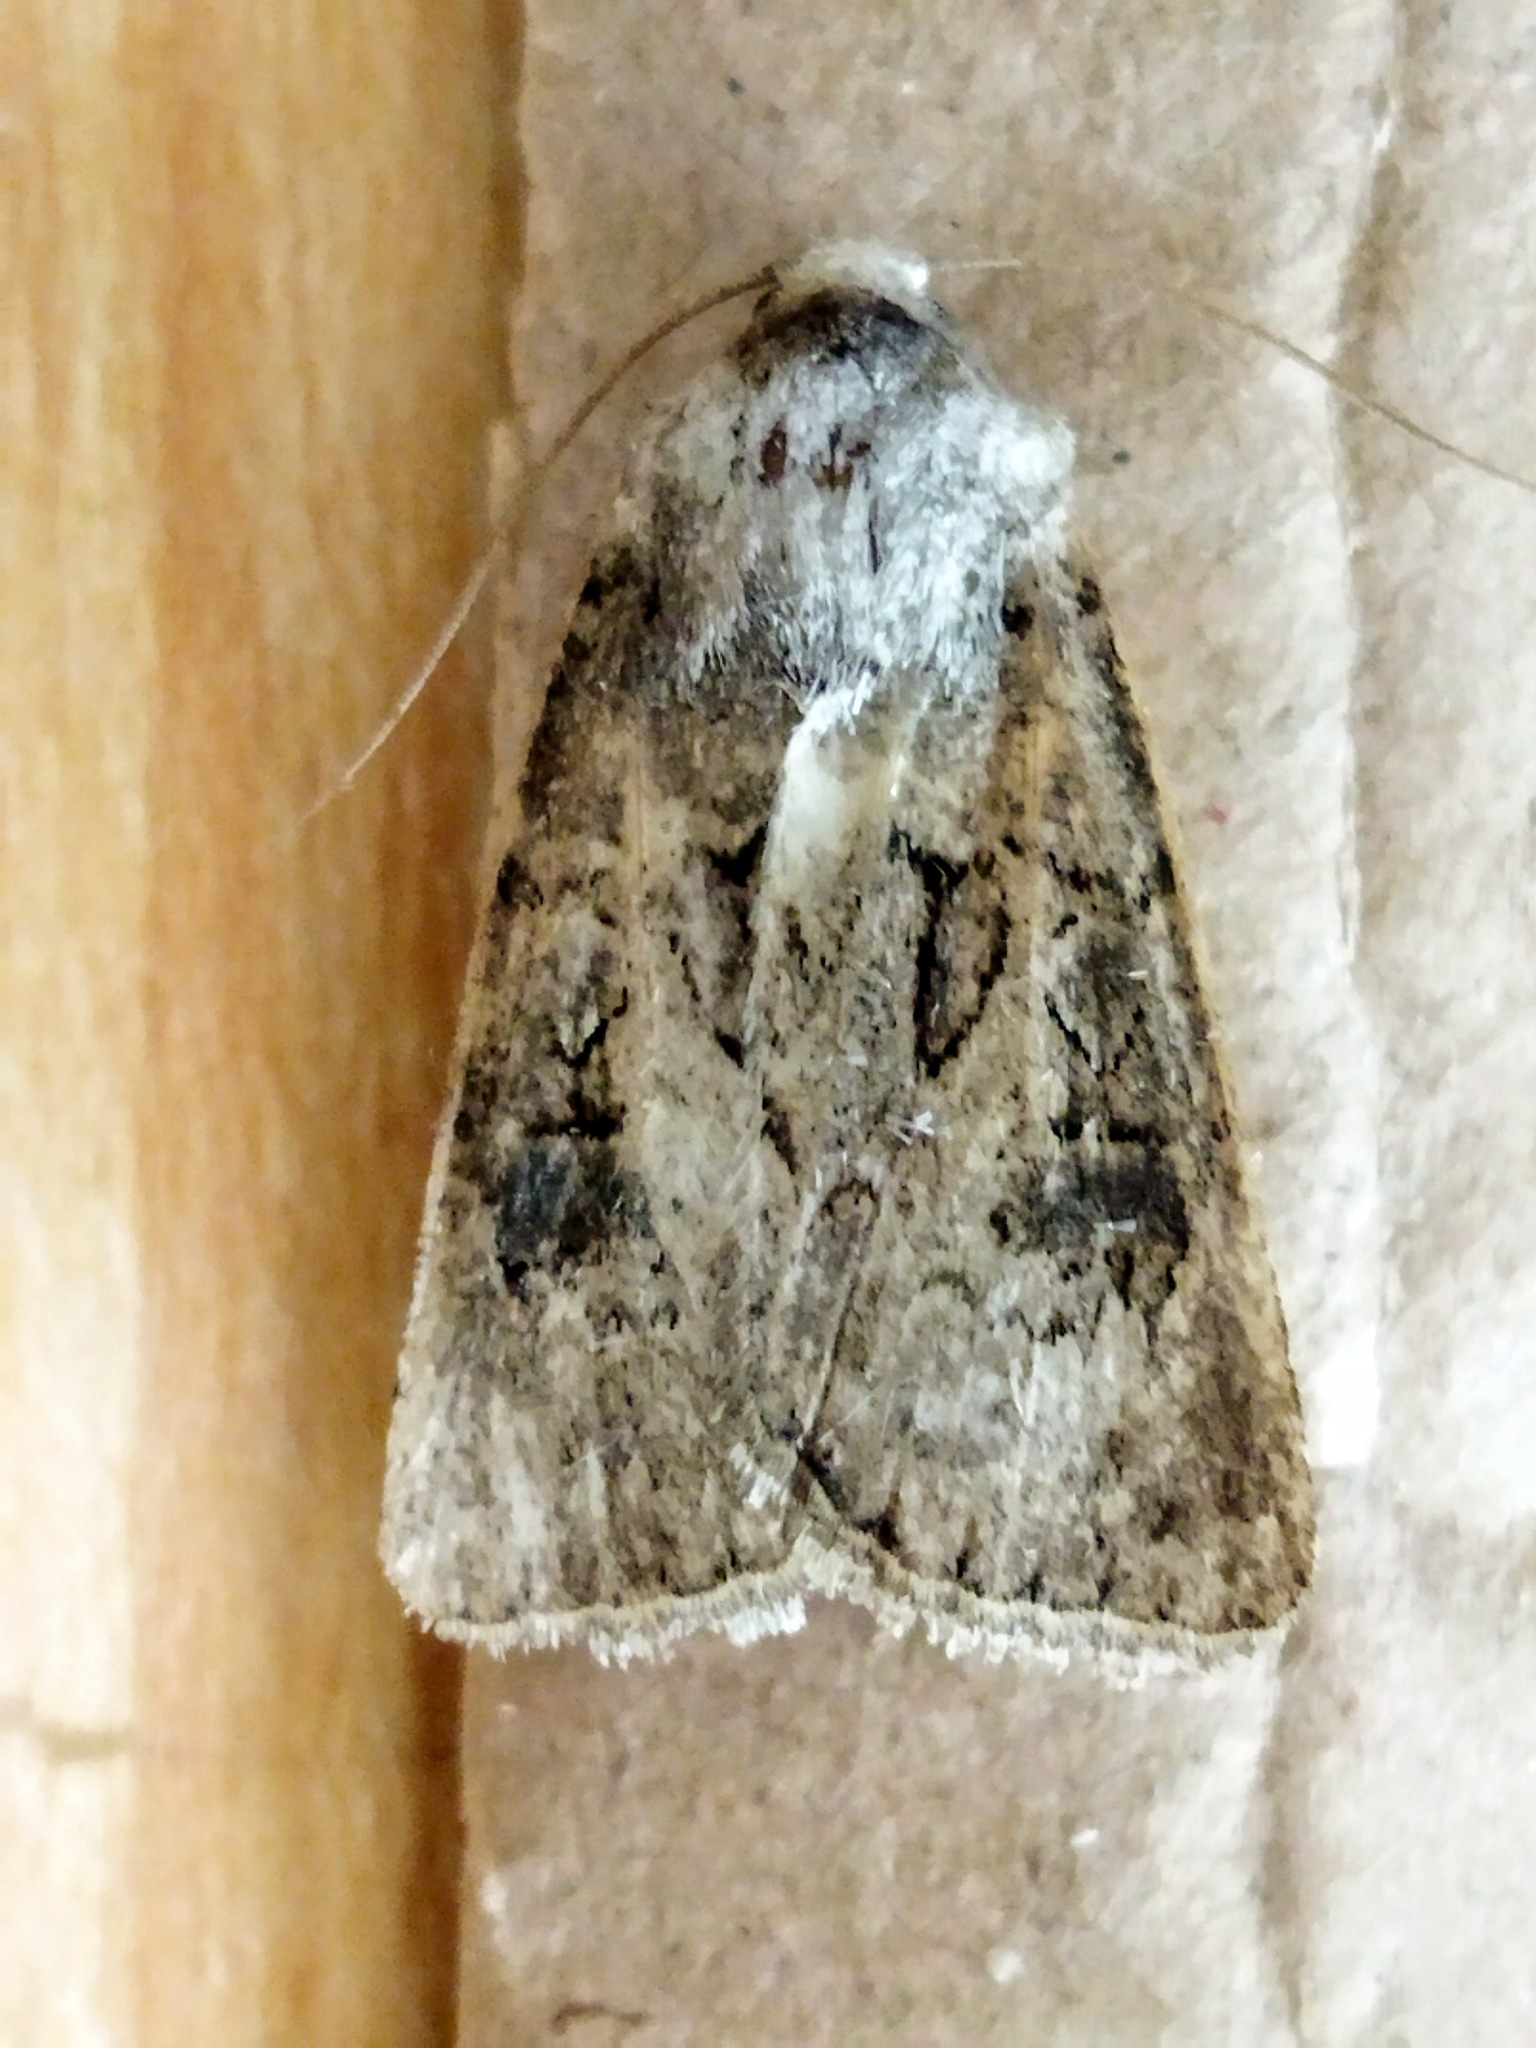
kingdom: Animalia
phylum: Arthropoda
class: Insecta
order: Lepidoptera
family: Noctuidae
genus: Agrotis
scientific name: Agrotis bigramma
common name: Great dart
